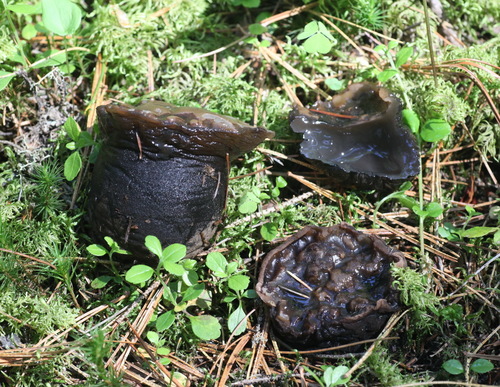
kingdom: Fungi
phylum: Ascomycota
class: Pezizomycetes
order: Pezizales
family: Sarcosomataceae
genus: Sarcosoma
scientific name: Sarcosoma globosum
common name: Charred-pancake cup
